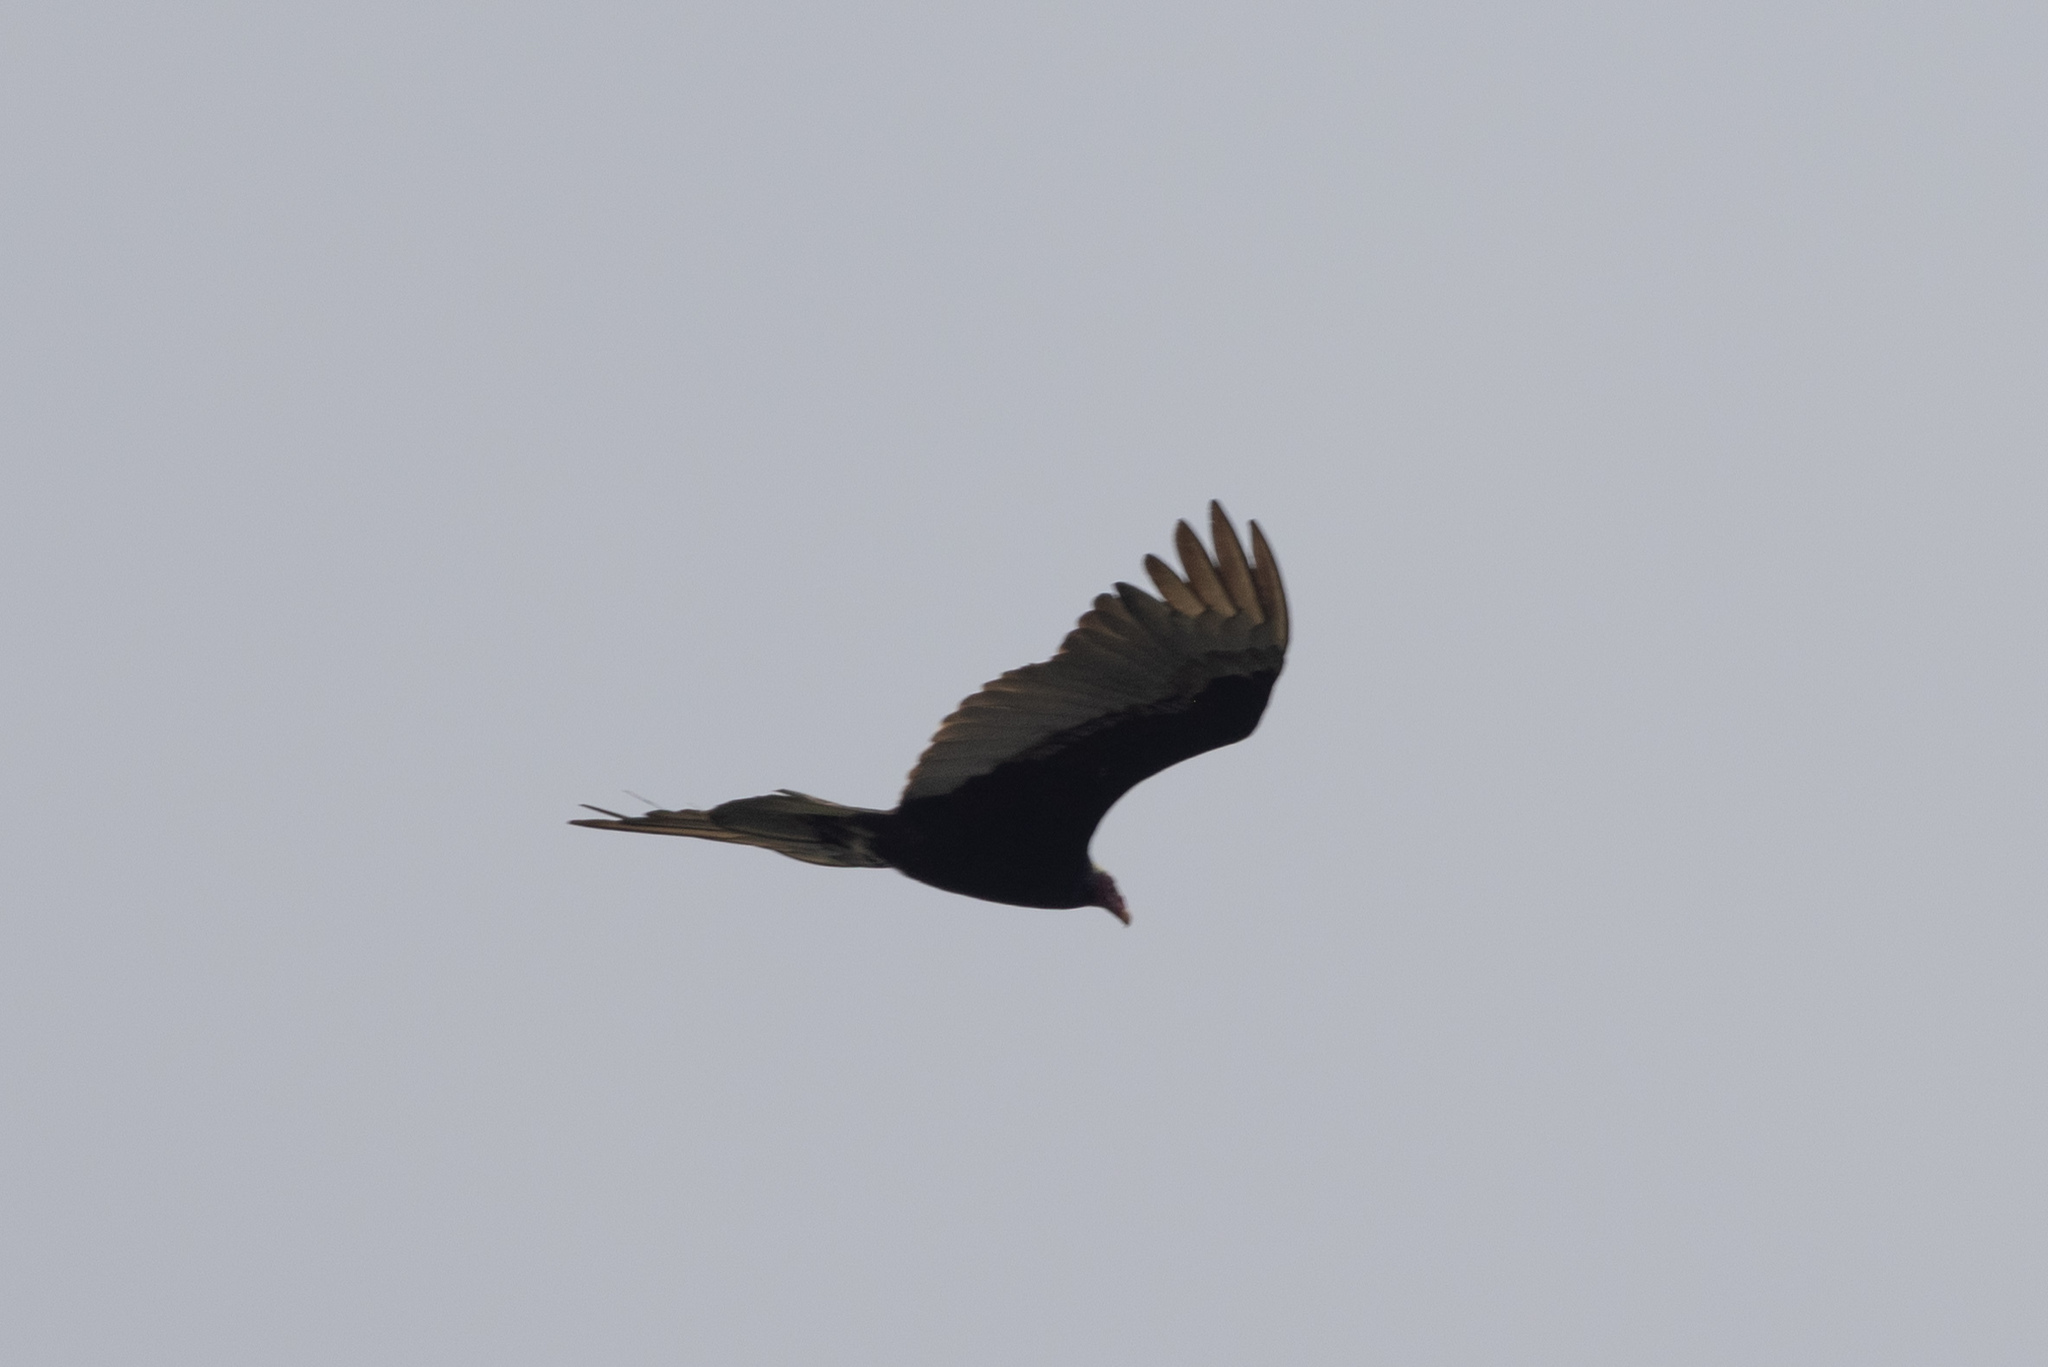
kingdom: Animalia
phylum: Chordata
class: Aves
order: Accipitriformes
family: Cathartidae
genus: Cathartes
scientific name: Cathartes aura
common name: Turkey vulture
